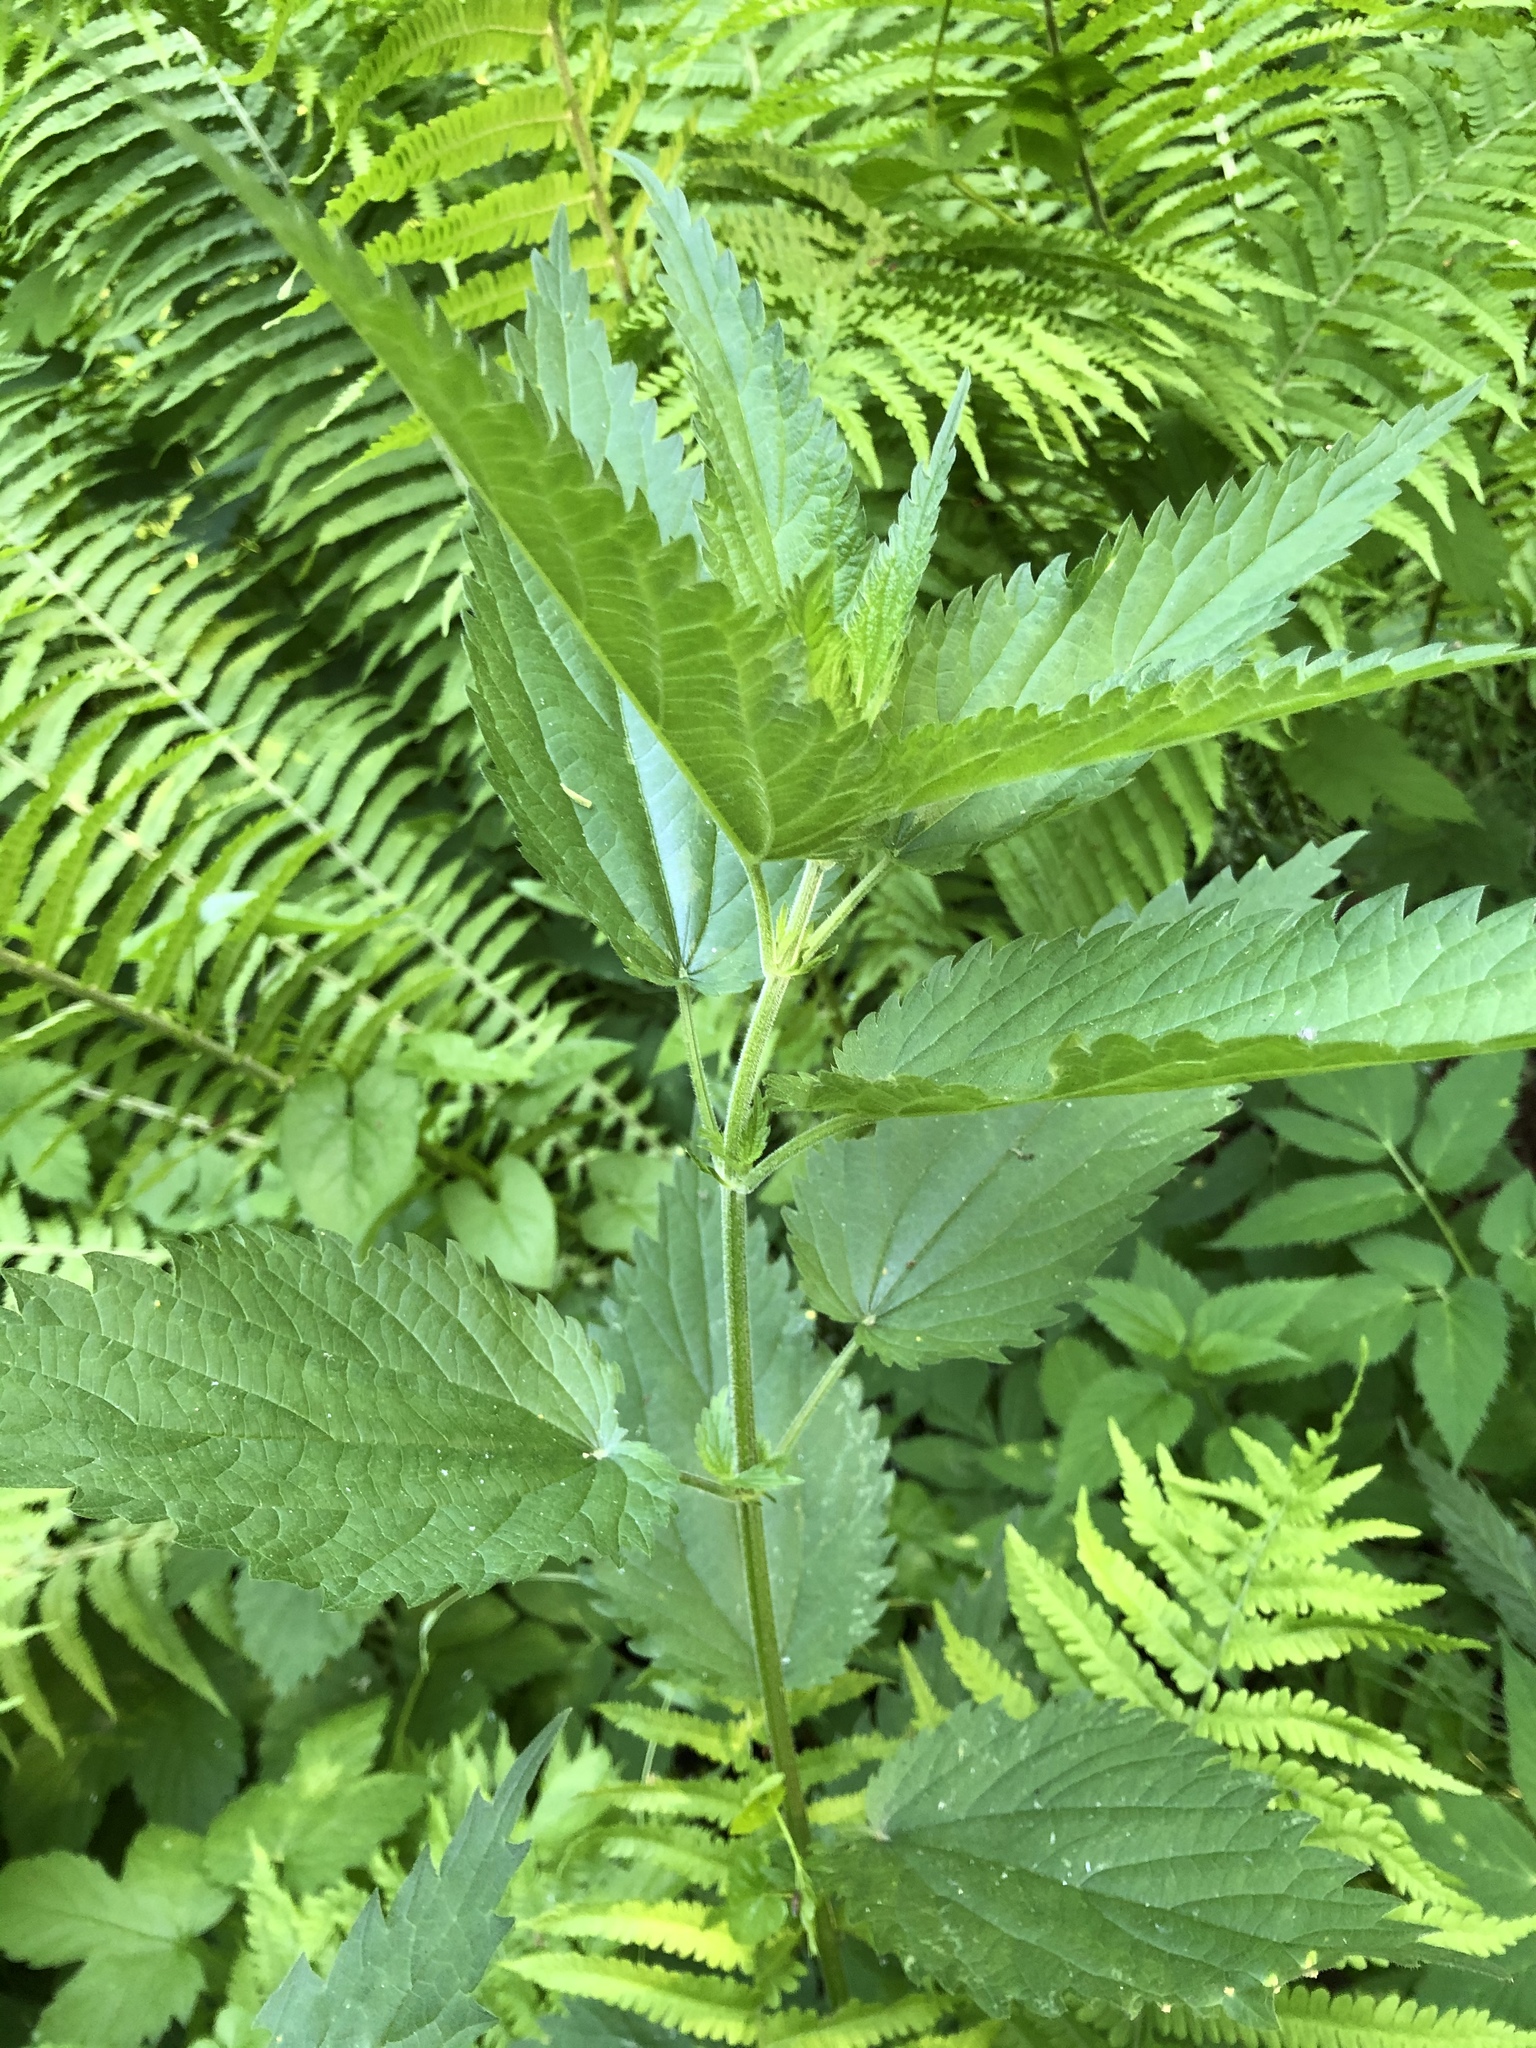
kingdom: Plantae
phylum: Tracheophyta
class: Magnoliopsida
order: Rosales
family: Urticaceae
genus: Urtica
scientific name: Urtica galeopsifolia
